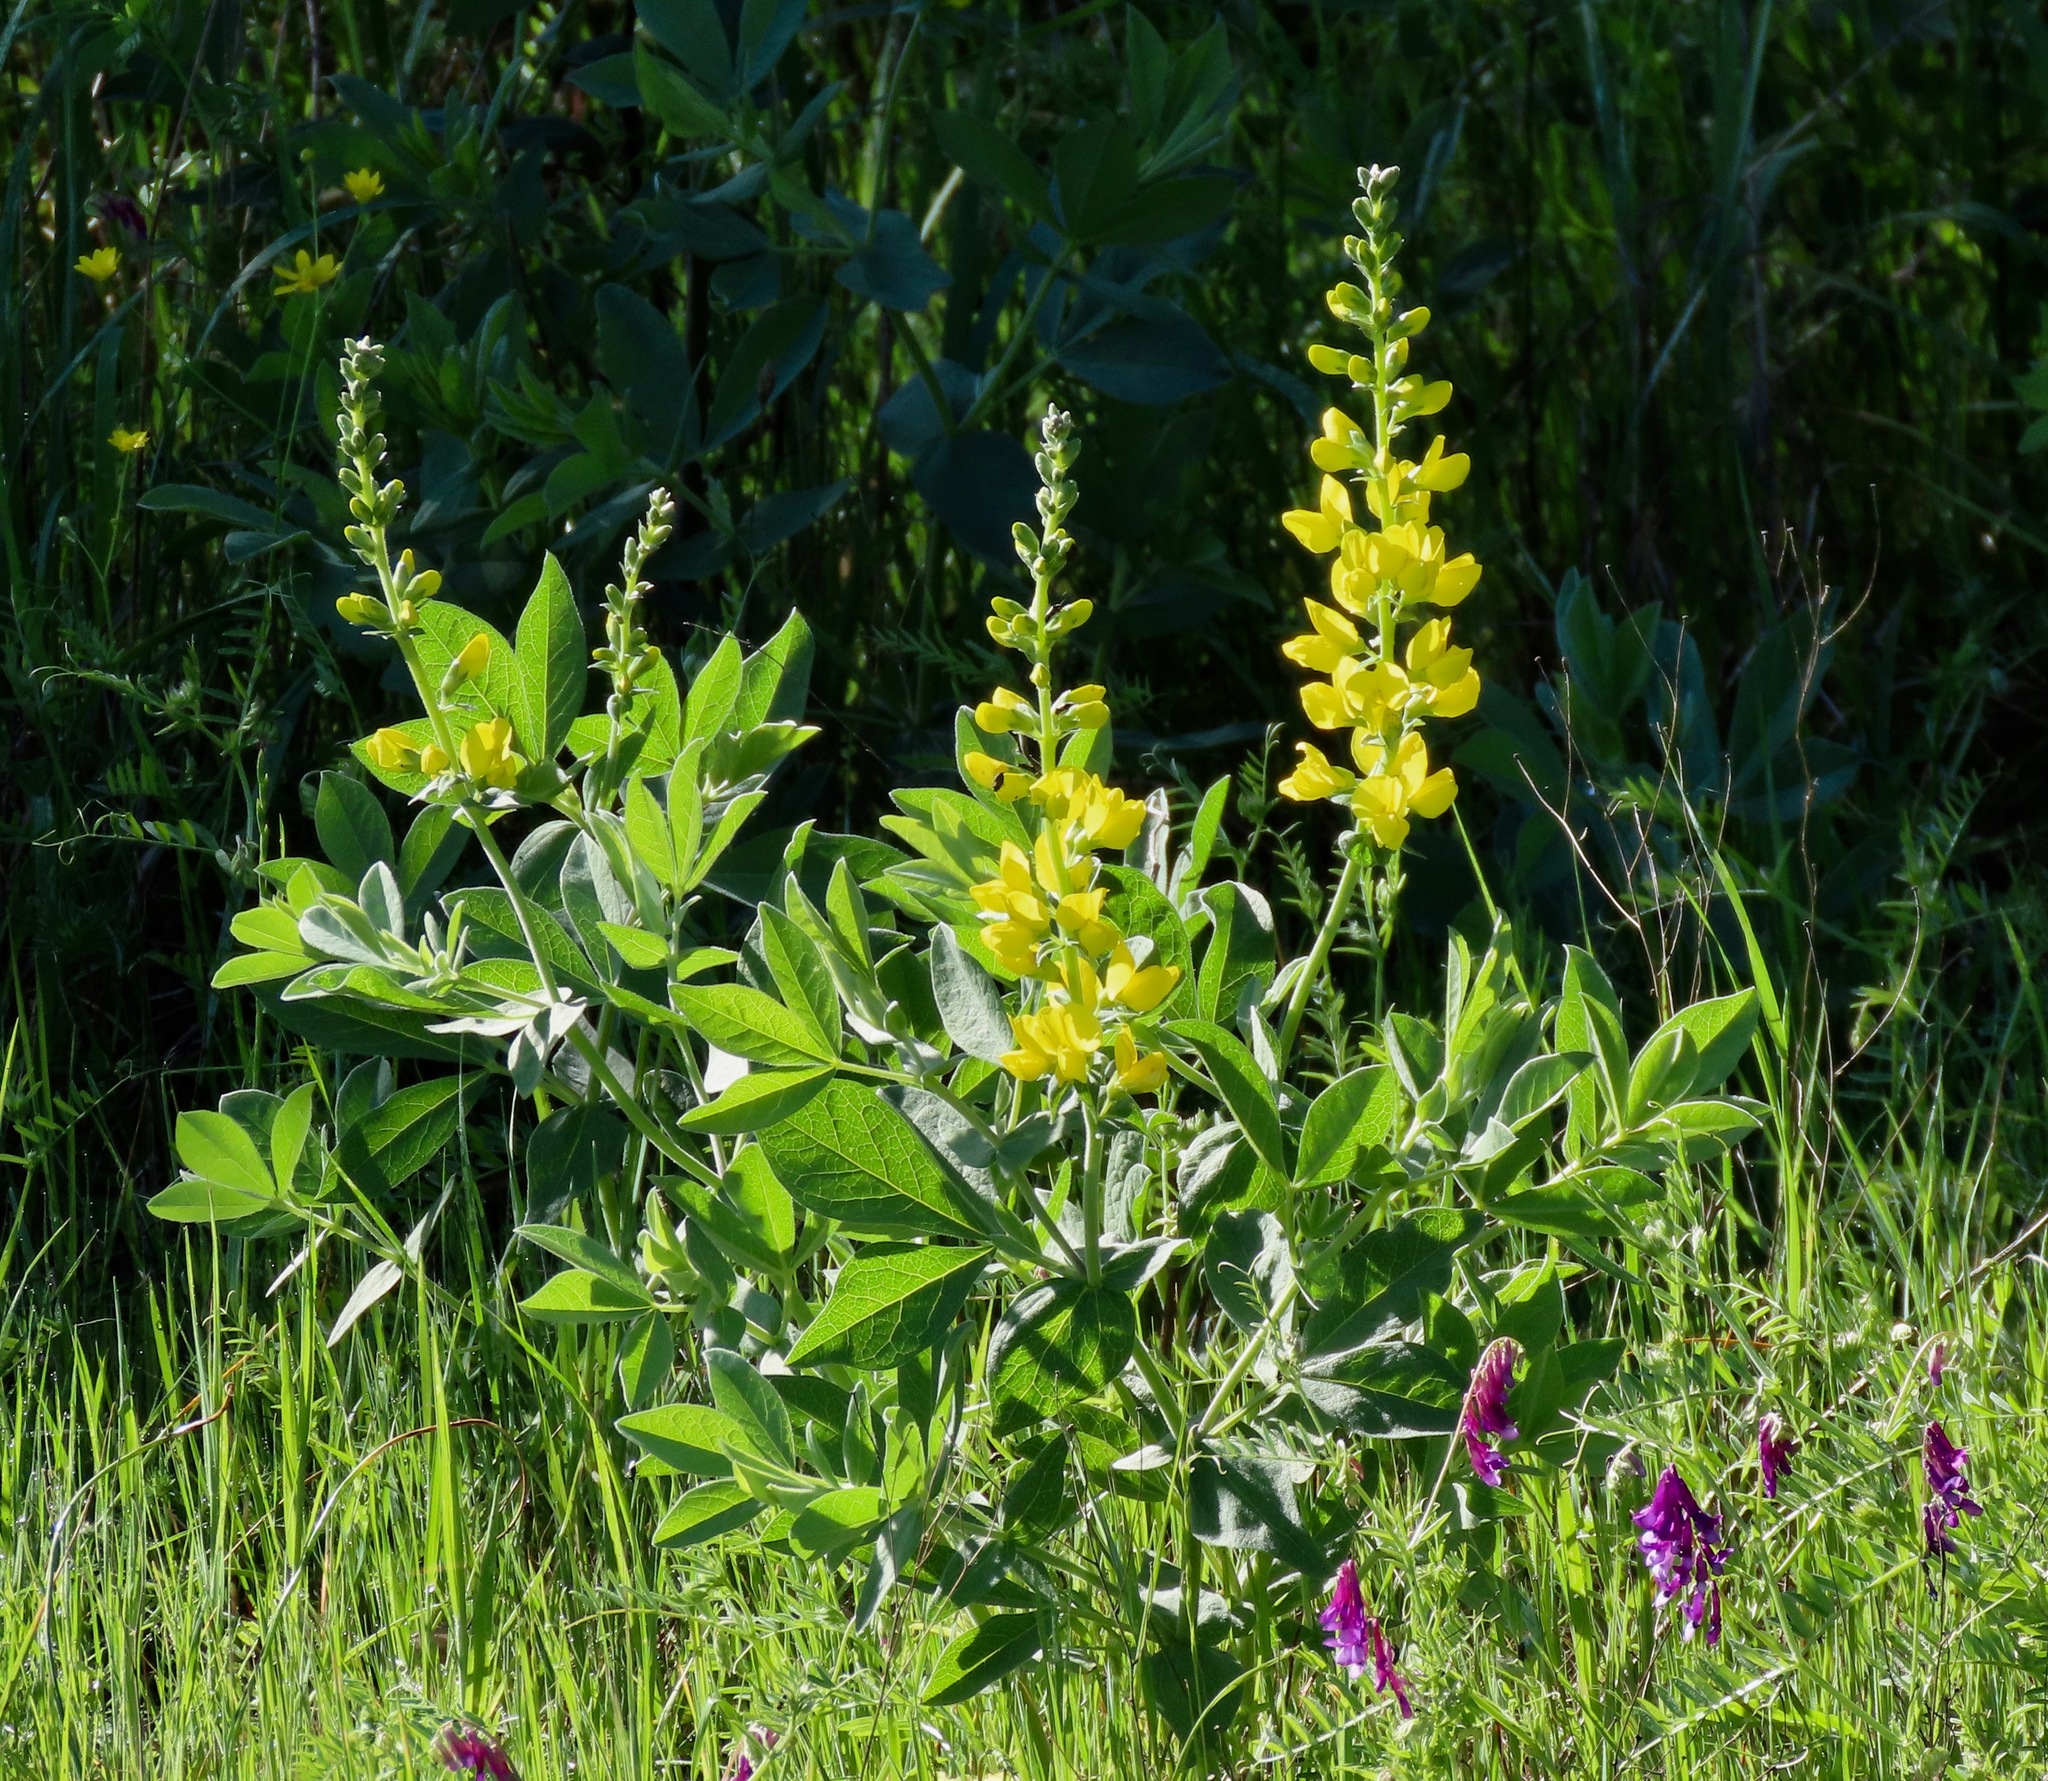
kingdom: Plantae
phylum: Tracheophyta
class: Magnoliopsida
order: Fabales
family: Fabaceae
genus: Thermopsis
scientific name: Thermopsis californica
